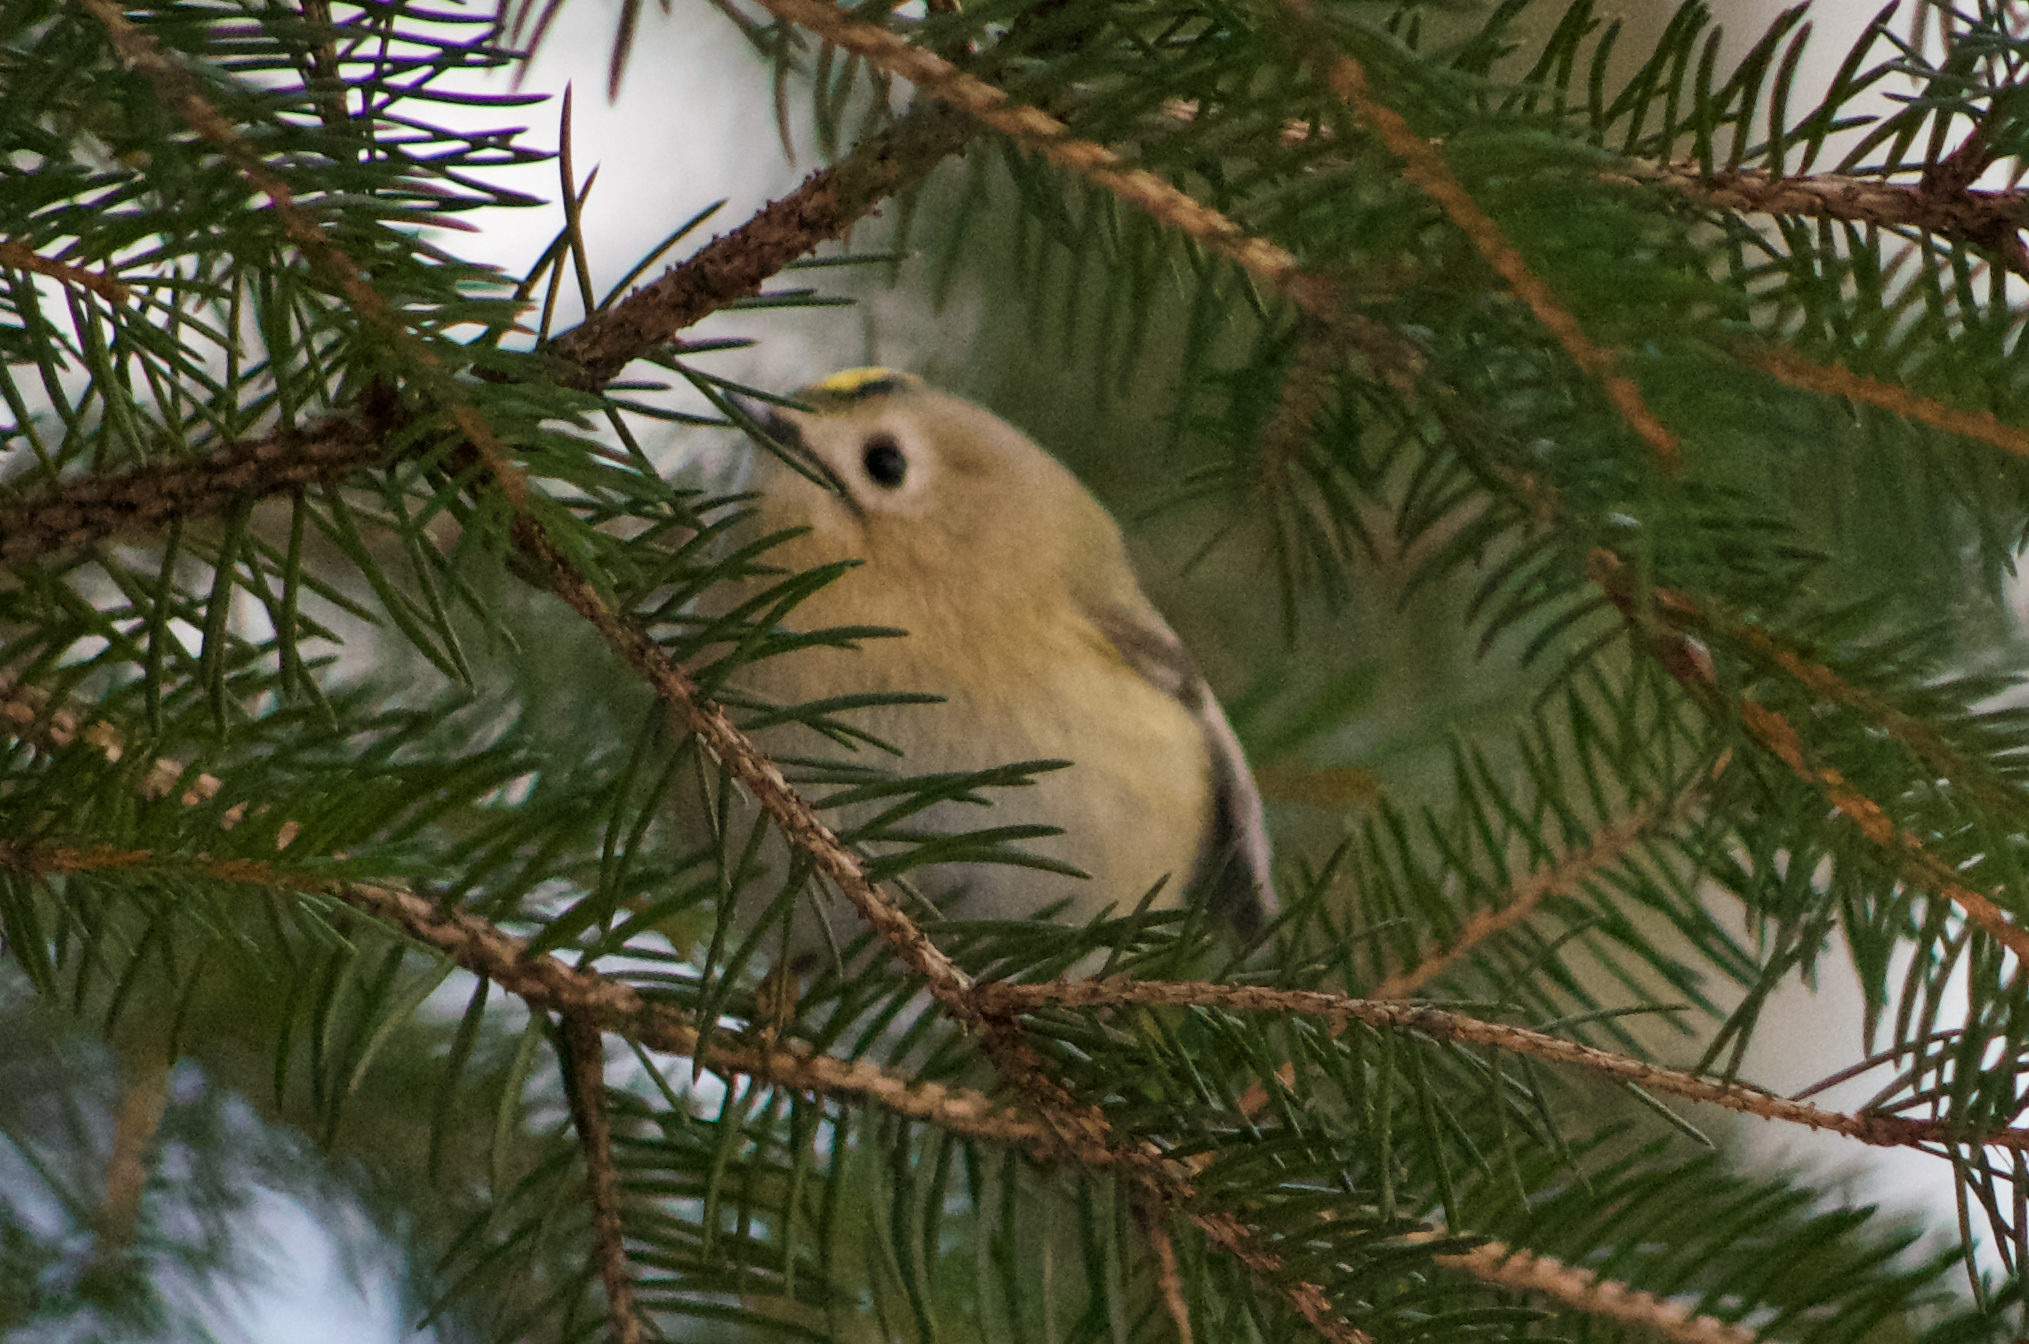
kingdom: Animalia
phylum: Chordata
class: Aves
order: Passeriformes
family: Regulidae
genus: Regulus
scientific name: Regulus regulus
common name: Goldcrest
